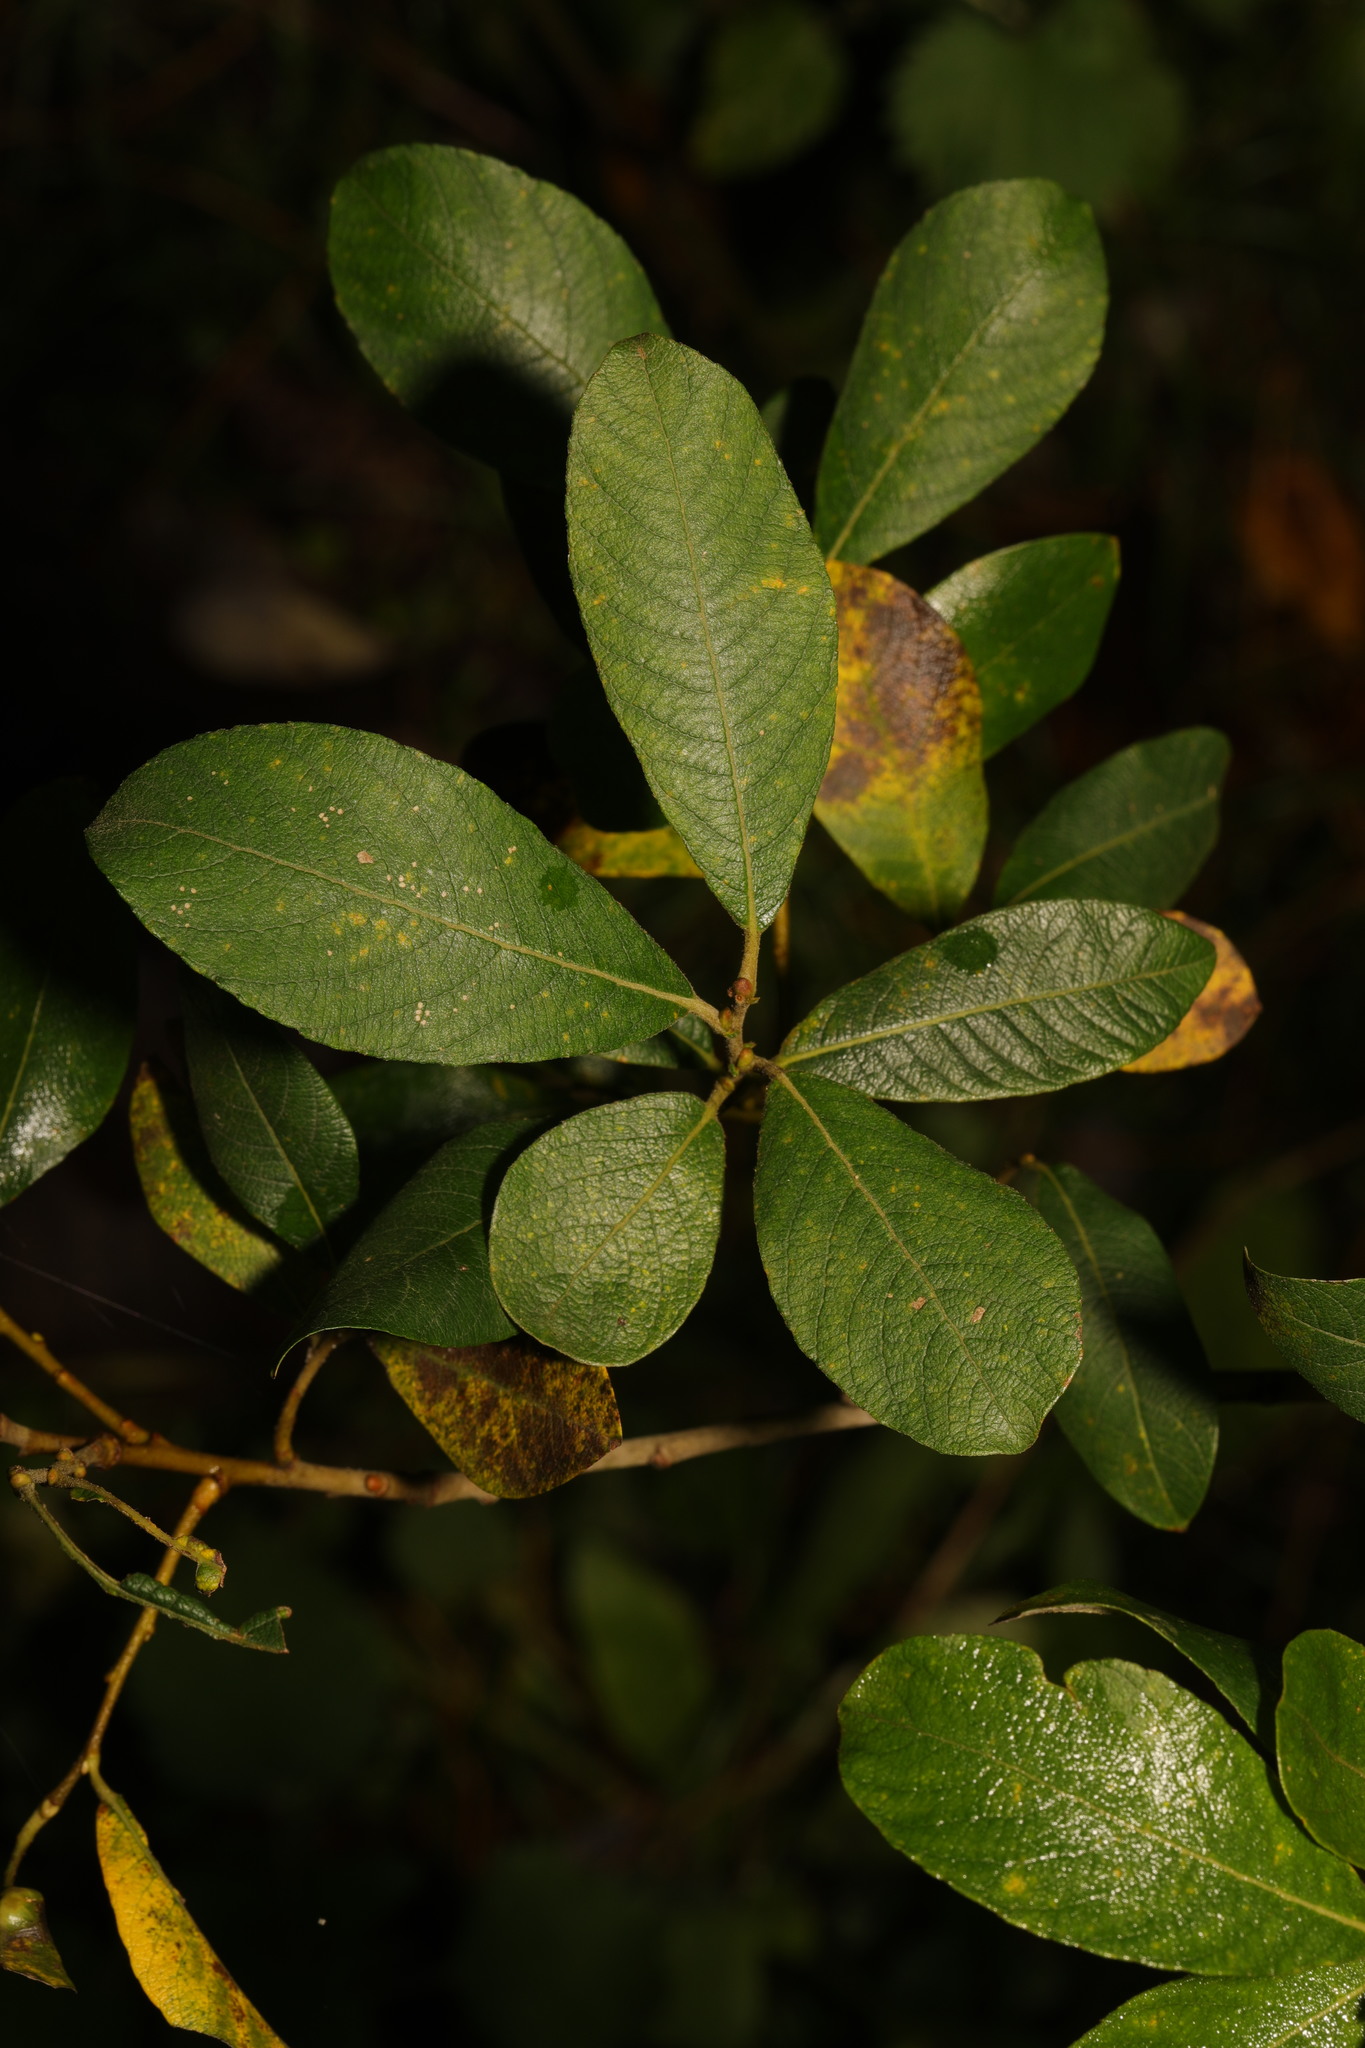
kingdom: Plantae
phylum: Tracheophyta
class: Magnoliopsida
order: Malpighiales
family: Salicaceae
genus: Salix
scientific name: Salix atrocinerea
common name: Rusty willow
